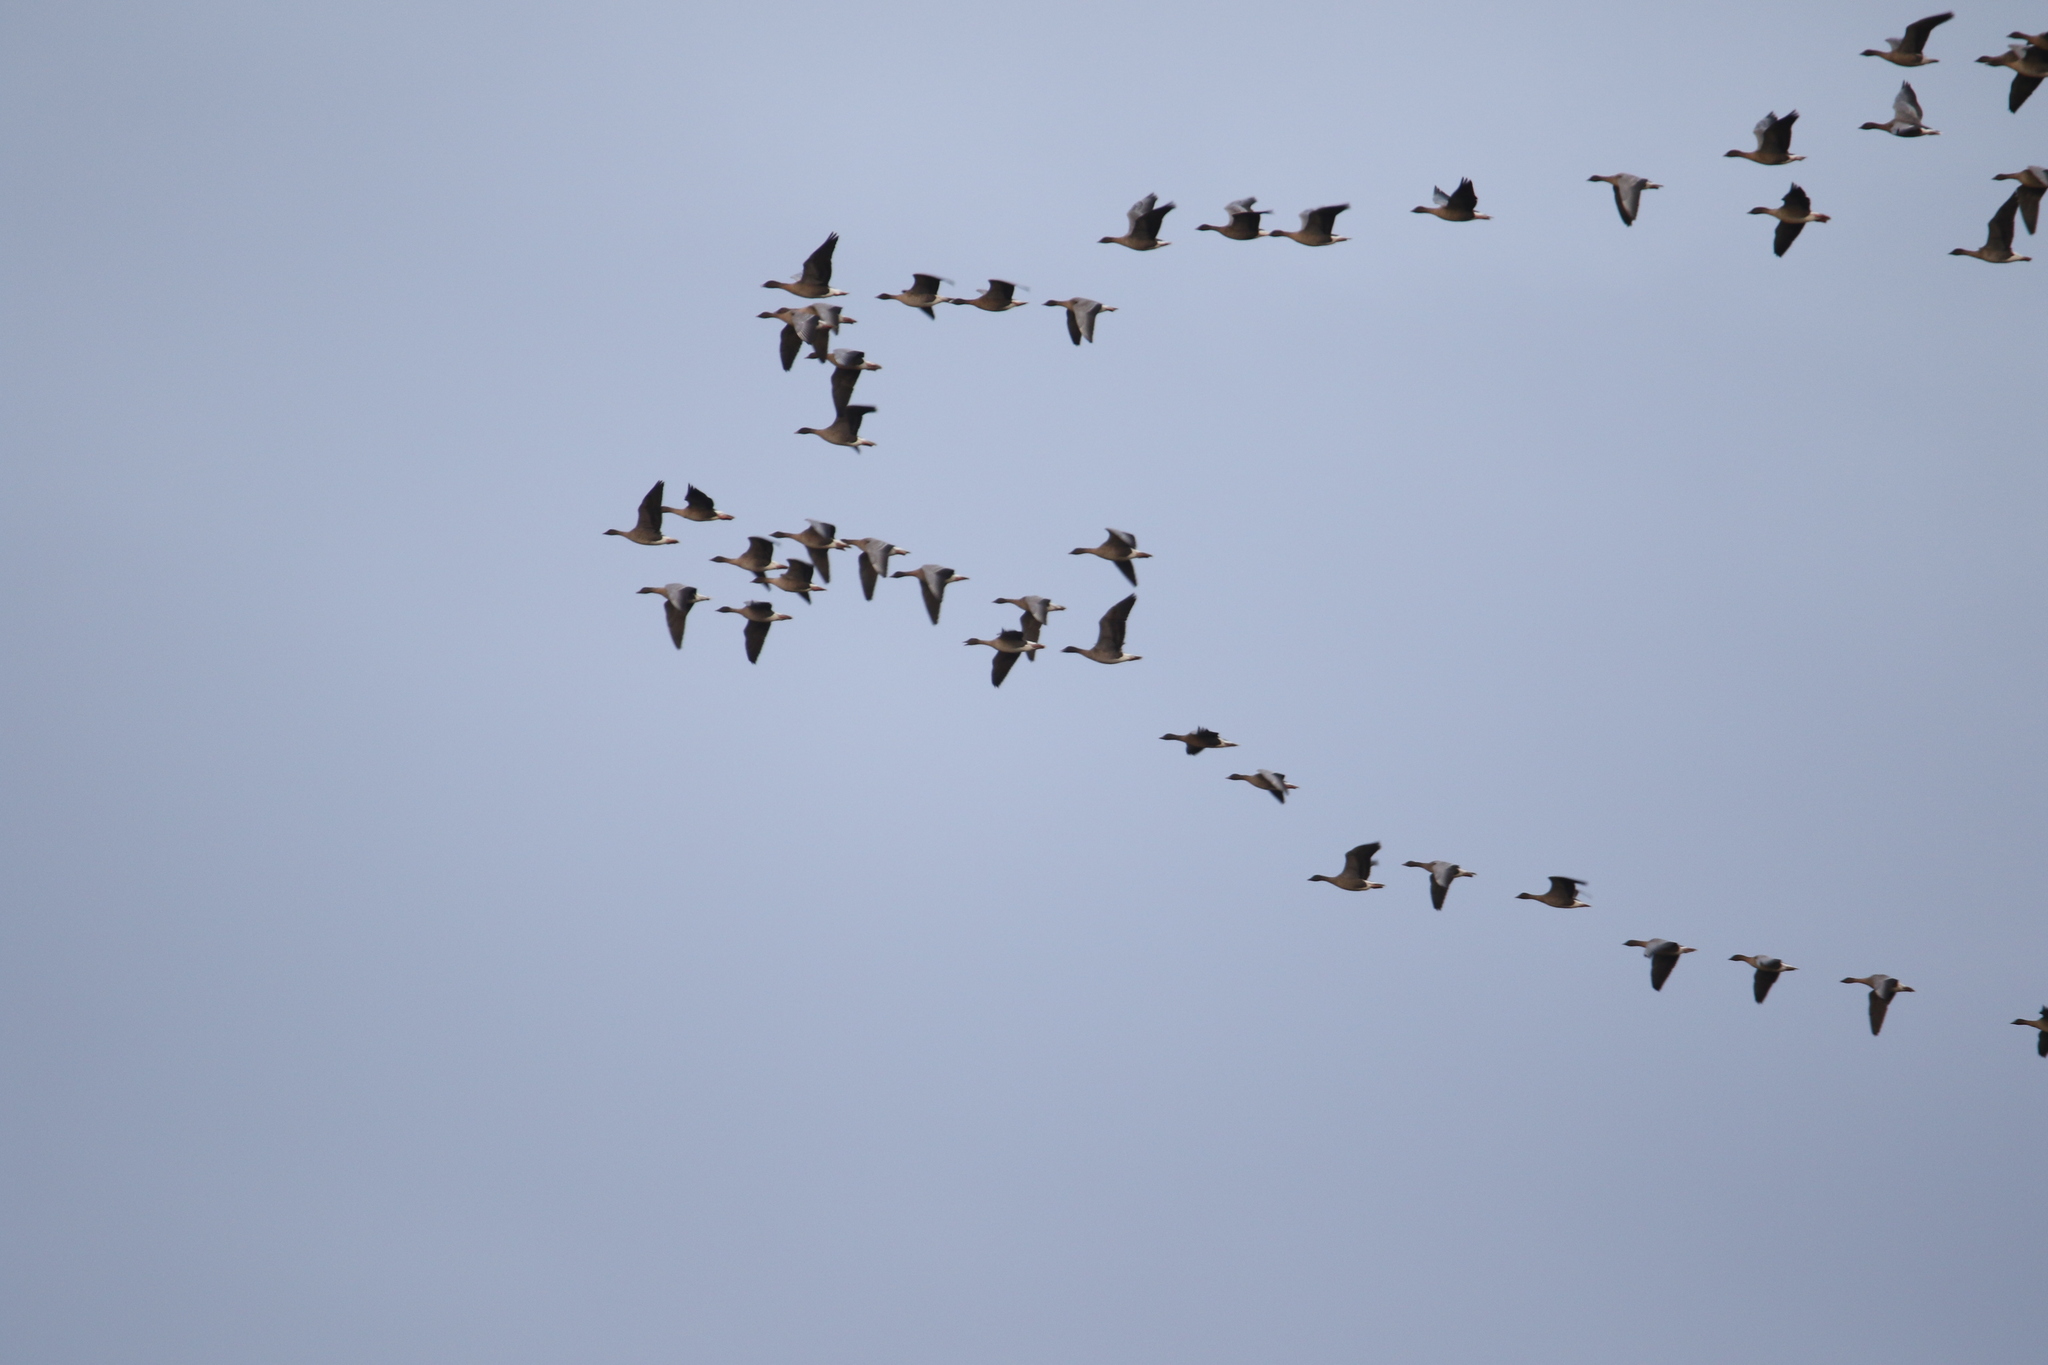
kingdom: Animalia
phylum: Chordata
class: Aves
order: Anseriformes
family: Anatidae
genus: Anser
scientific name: Anser brachyrhynchus
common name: Pink-footed goose
